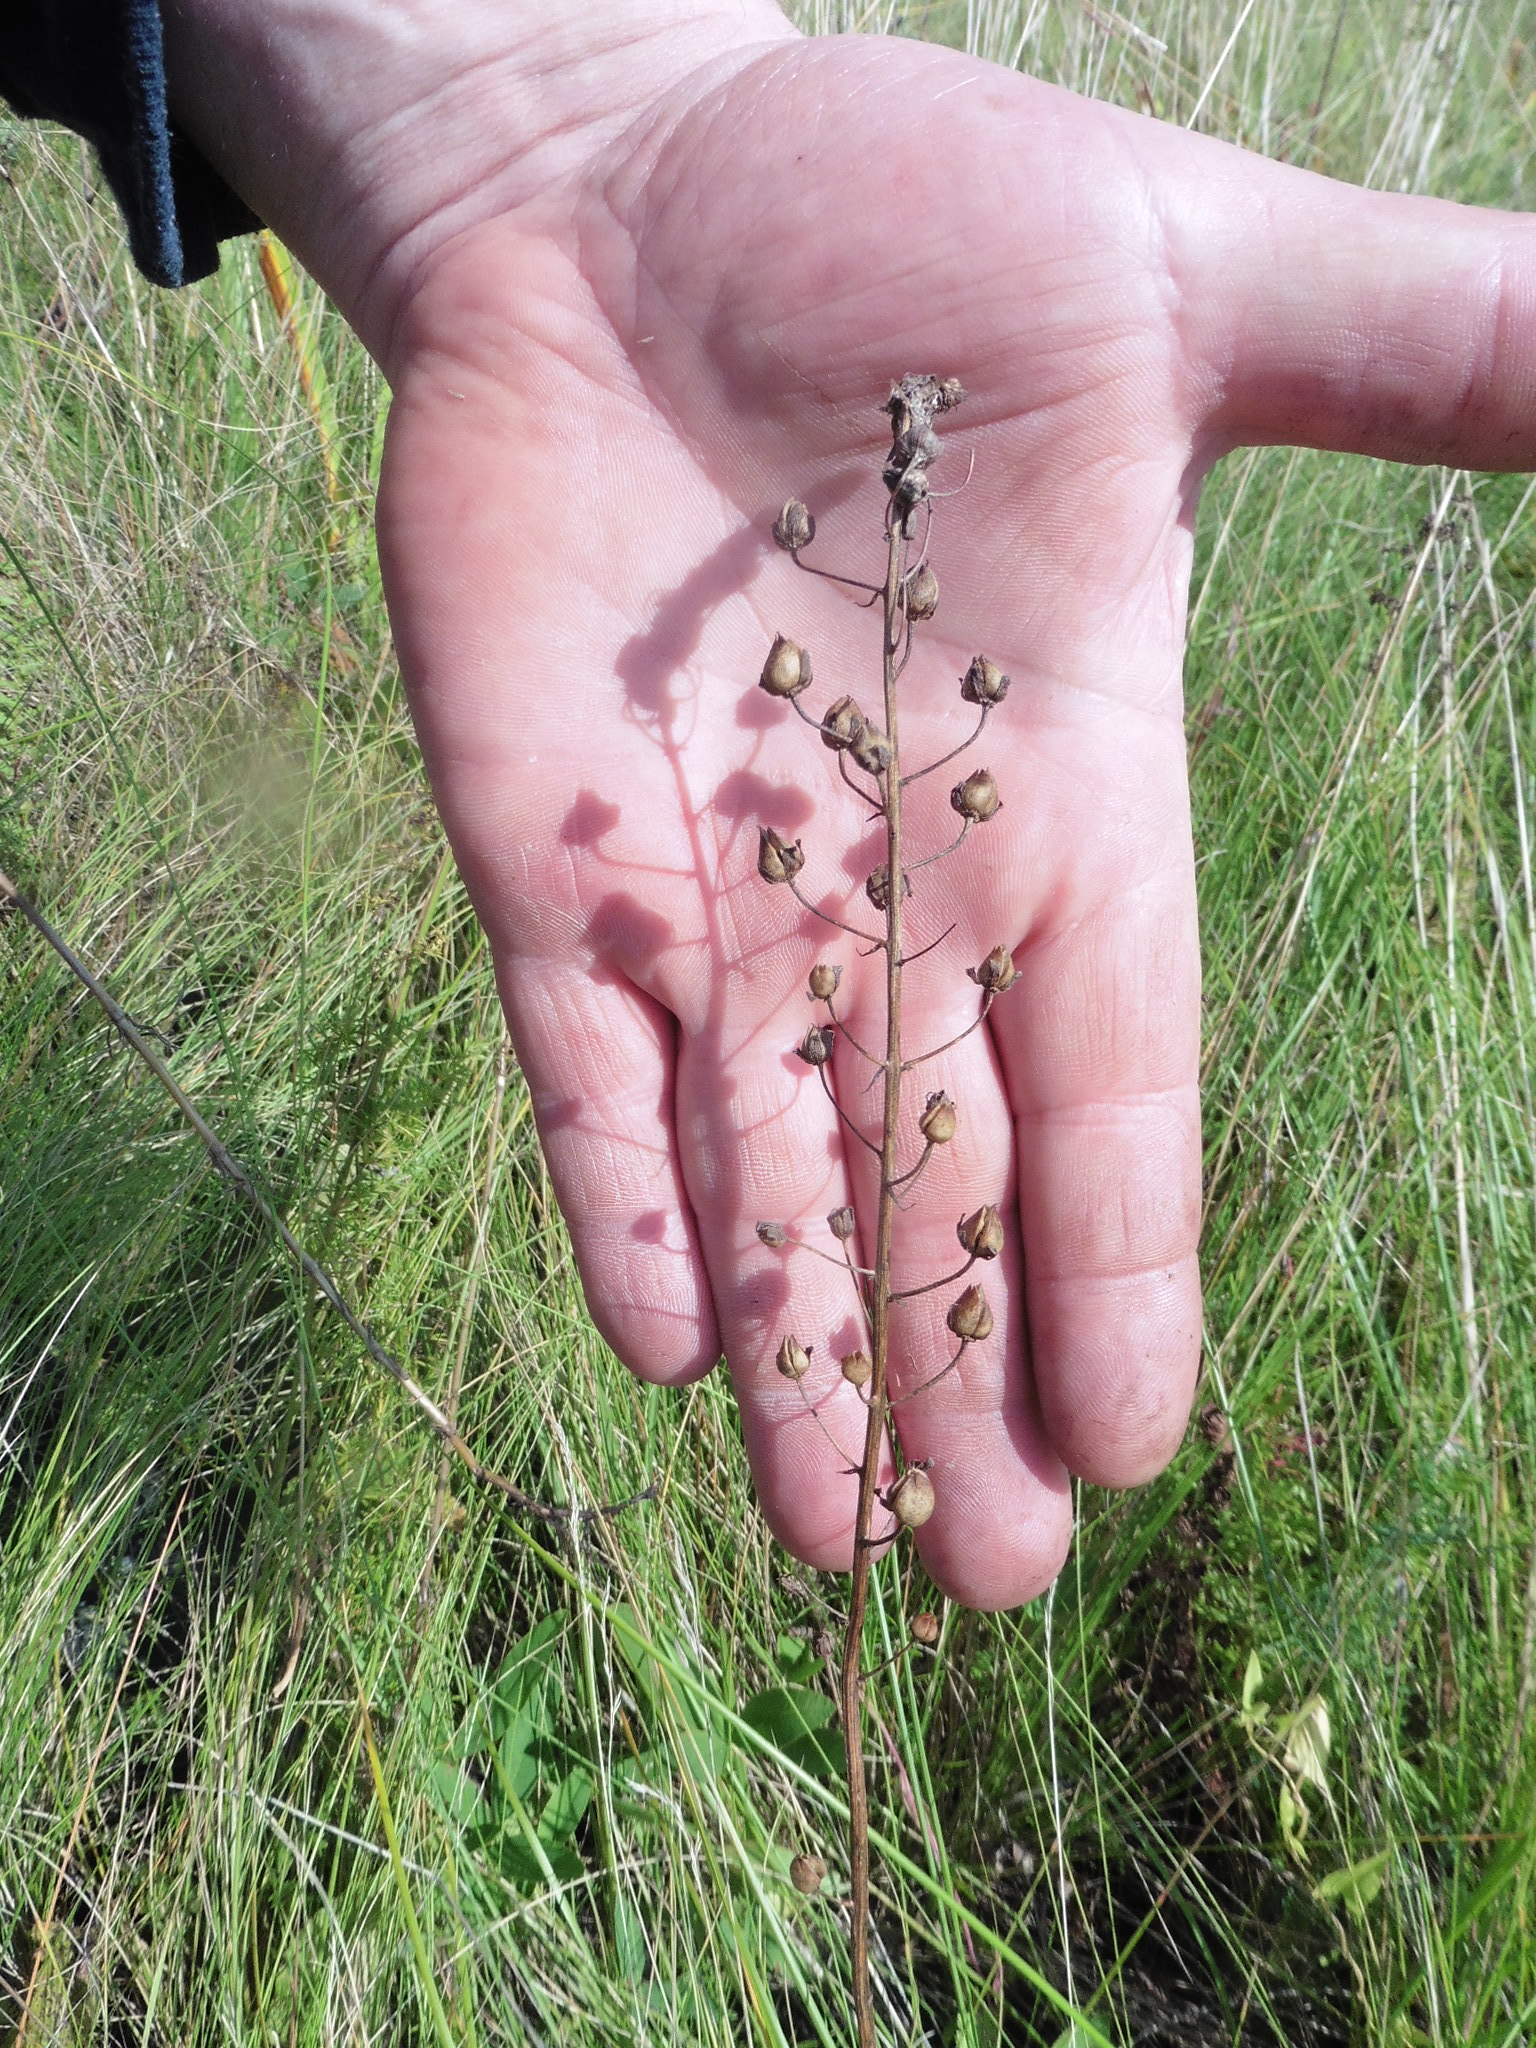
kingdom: Plantae
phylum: Tracheophyta
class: Magnoliopsida
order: Lamiales
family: Scrophulariaceae
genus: Verbascum
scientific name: Verbascum phoeniceum
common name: Purple mullein
